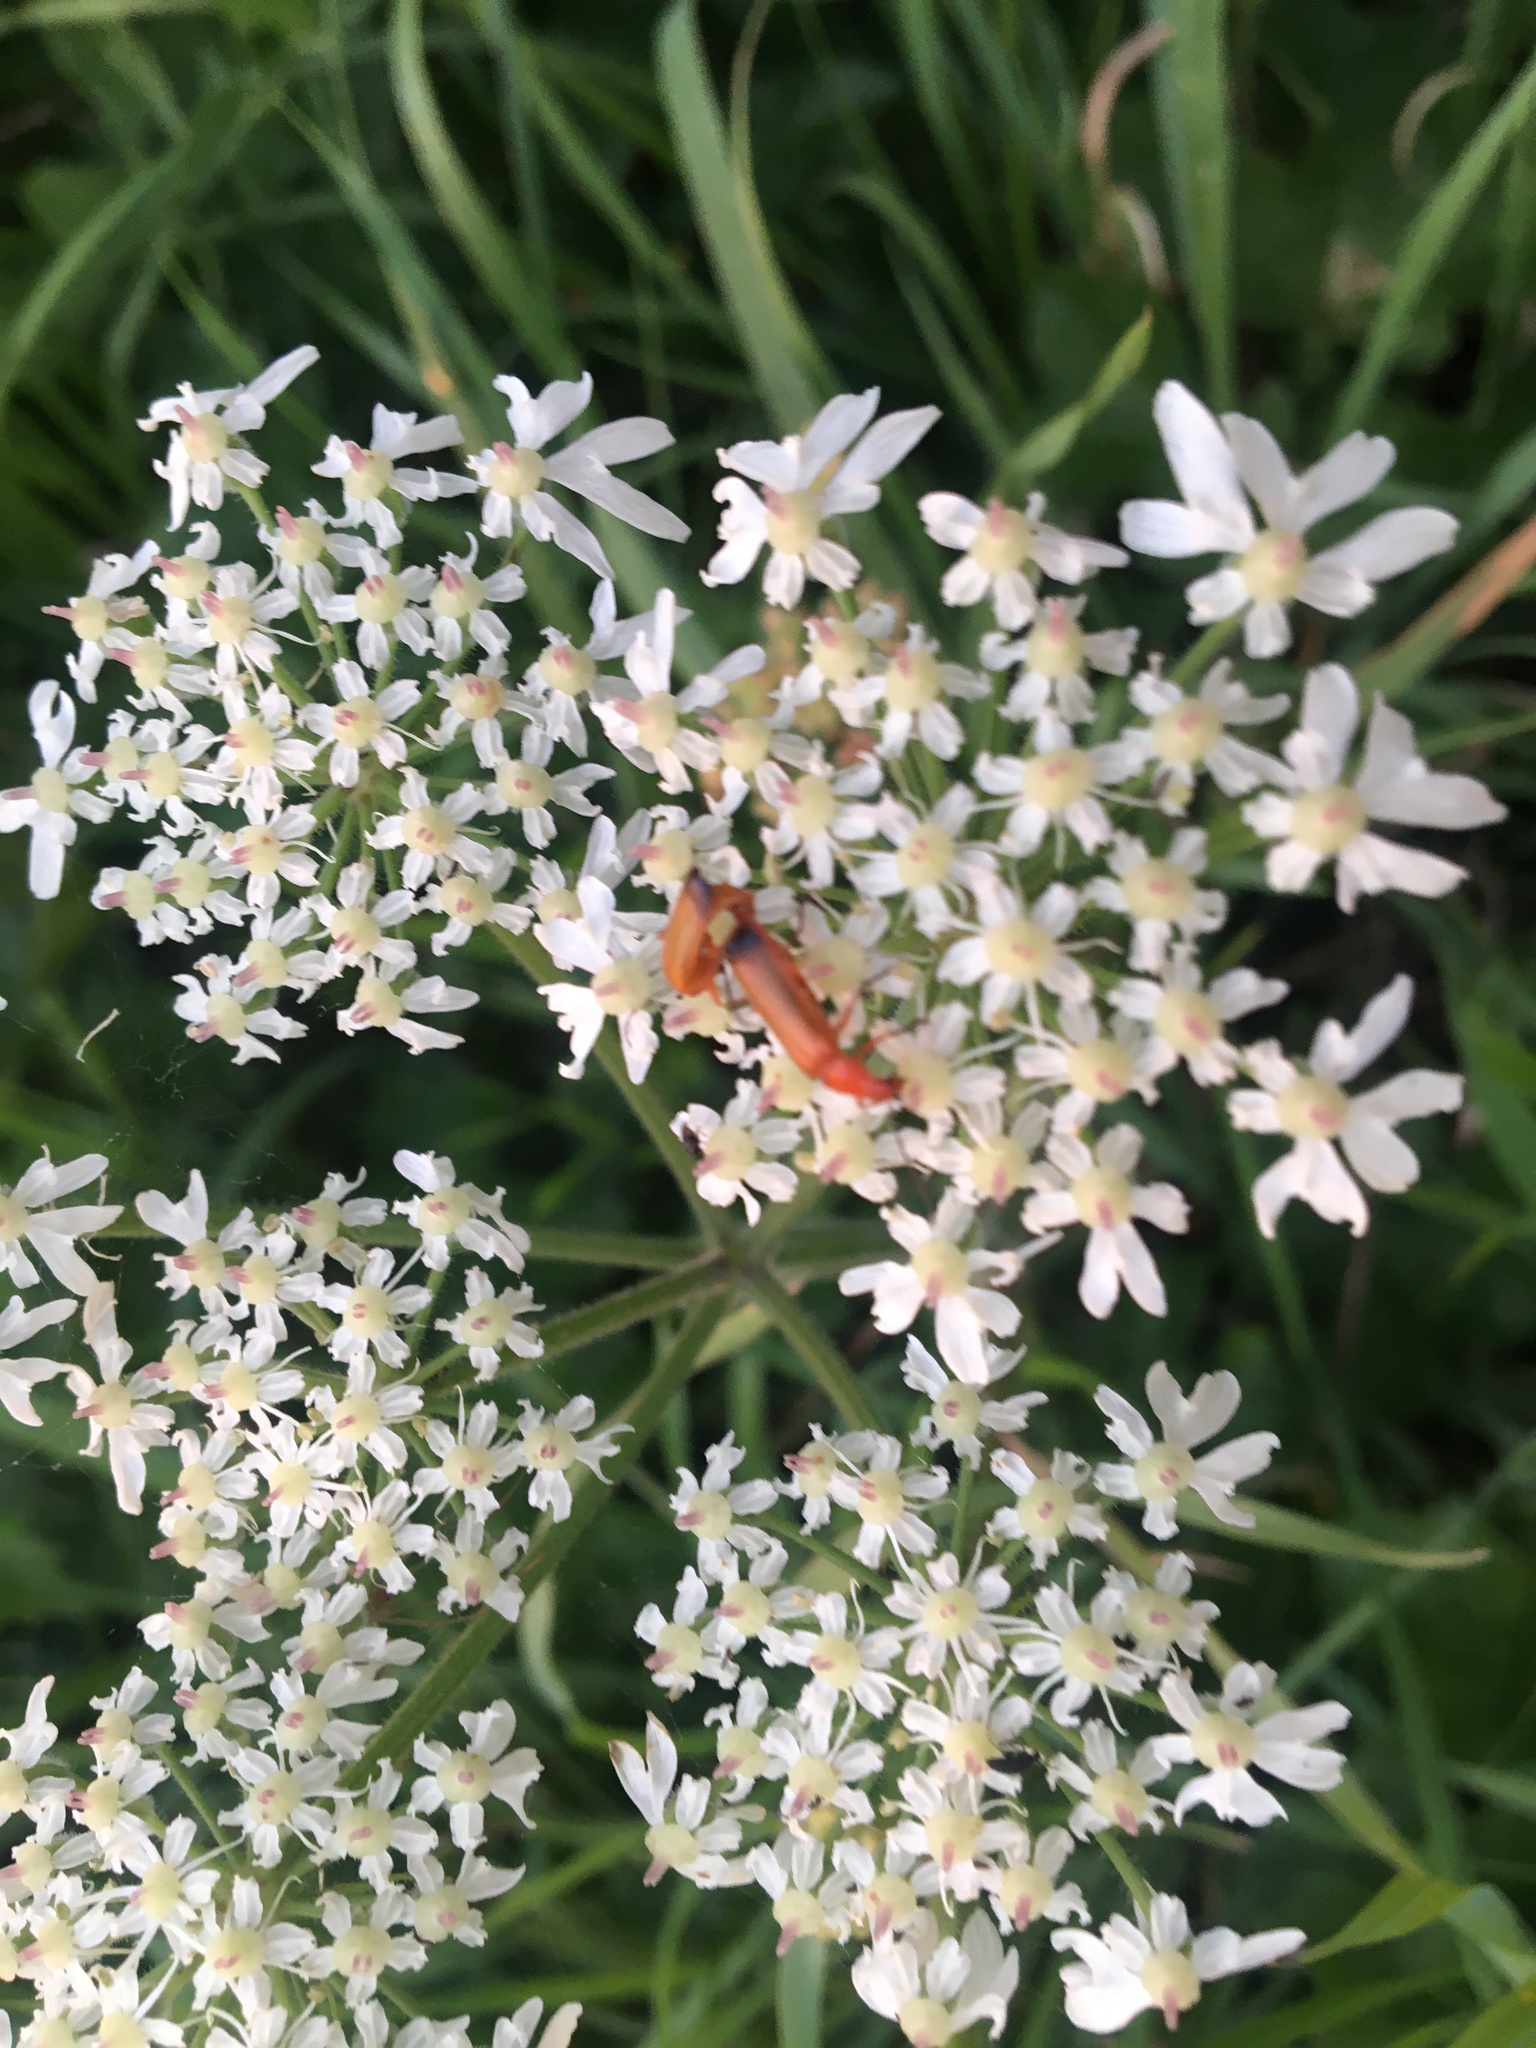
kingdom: Animalia
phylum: Arthropoda
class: Insecta
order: Coleoptera
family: Cantharidae
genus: Rhagonycha
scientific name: Rhagonycha fulva
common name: Common red soldier beetle
